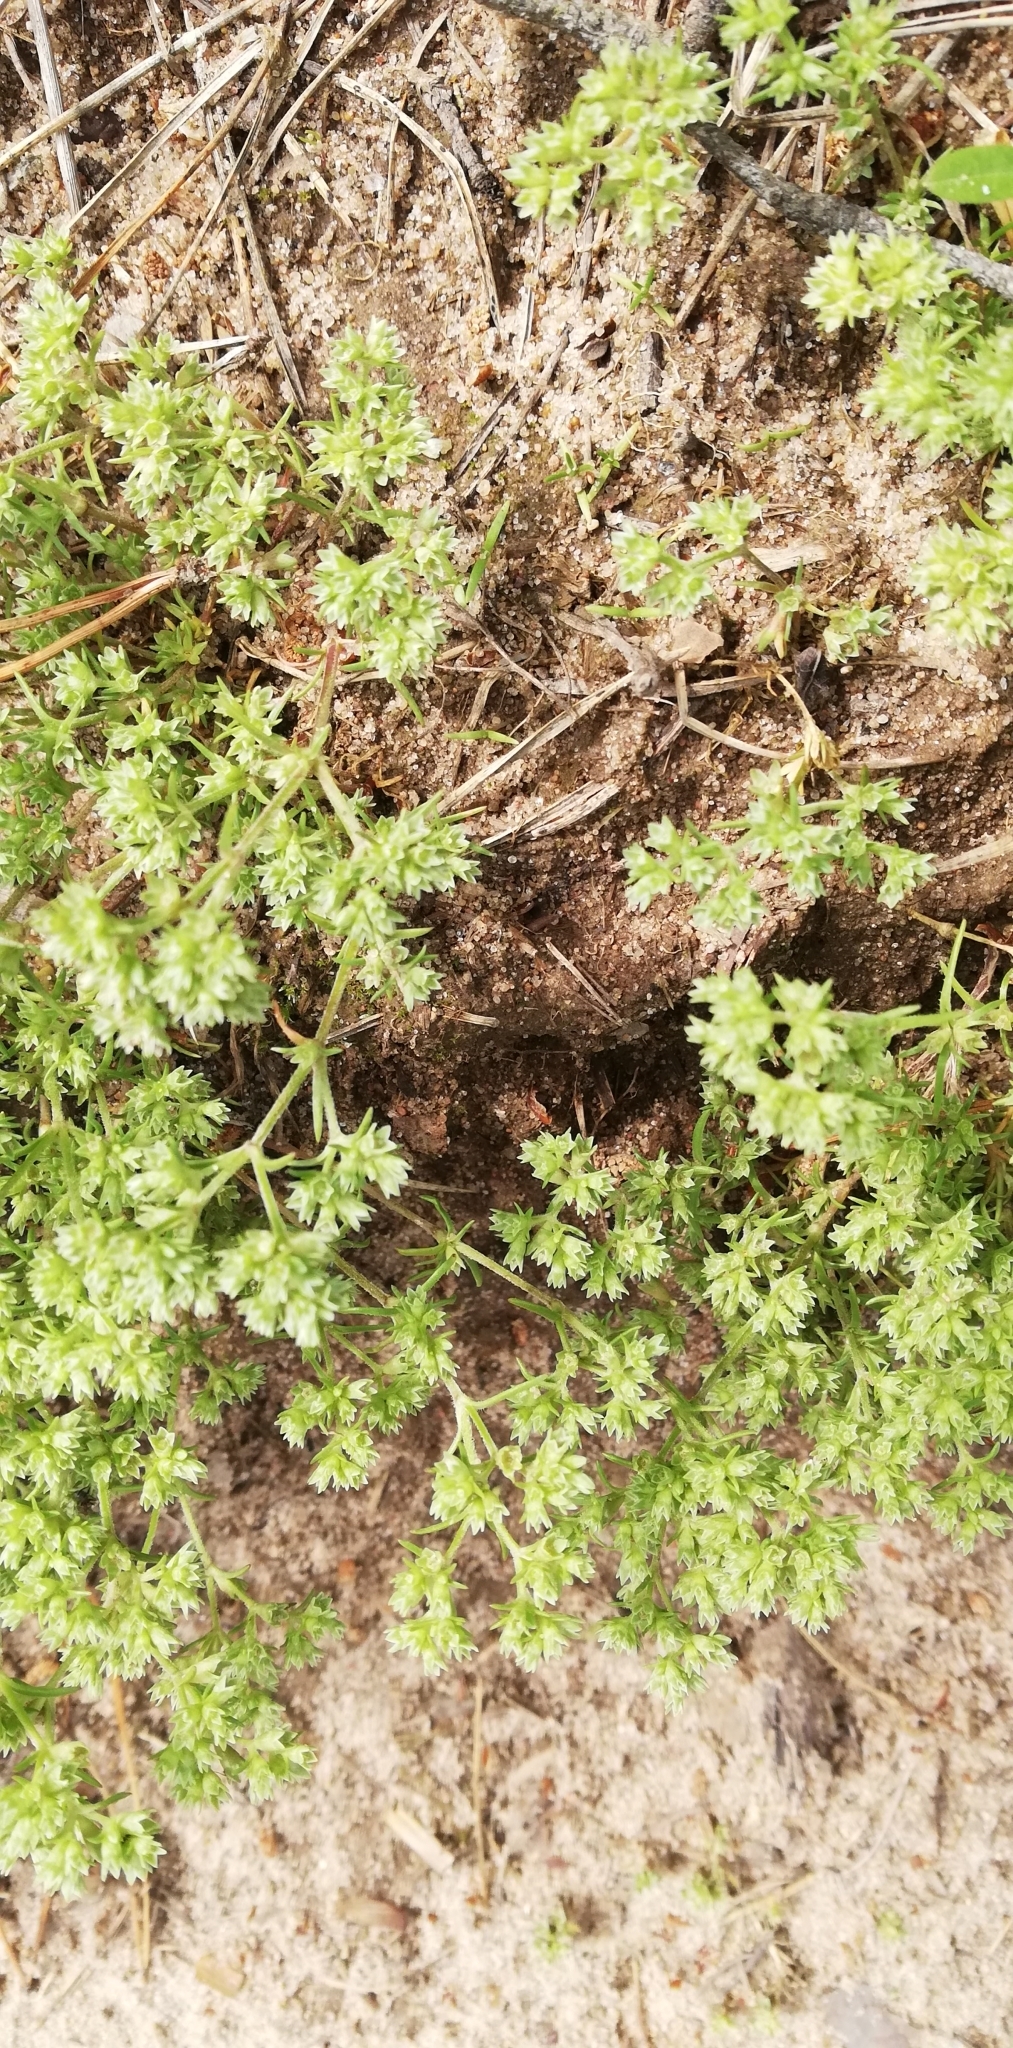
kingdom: Plantae
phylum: Tracheophyta
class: Magnoliopsida
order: Caryophyllales
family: Caryophyllaceae
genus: Scleranthus
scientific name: Scleranthus annuus
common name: Annual knawel
